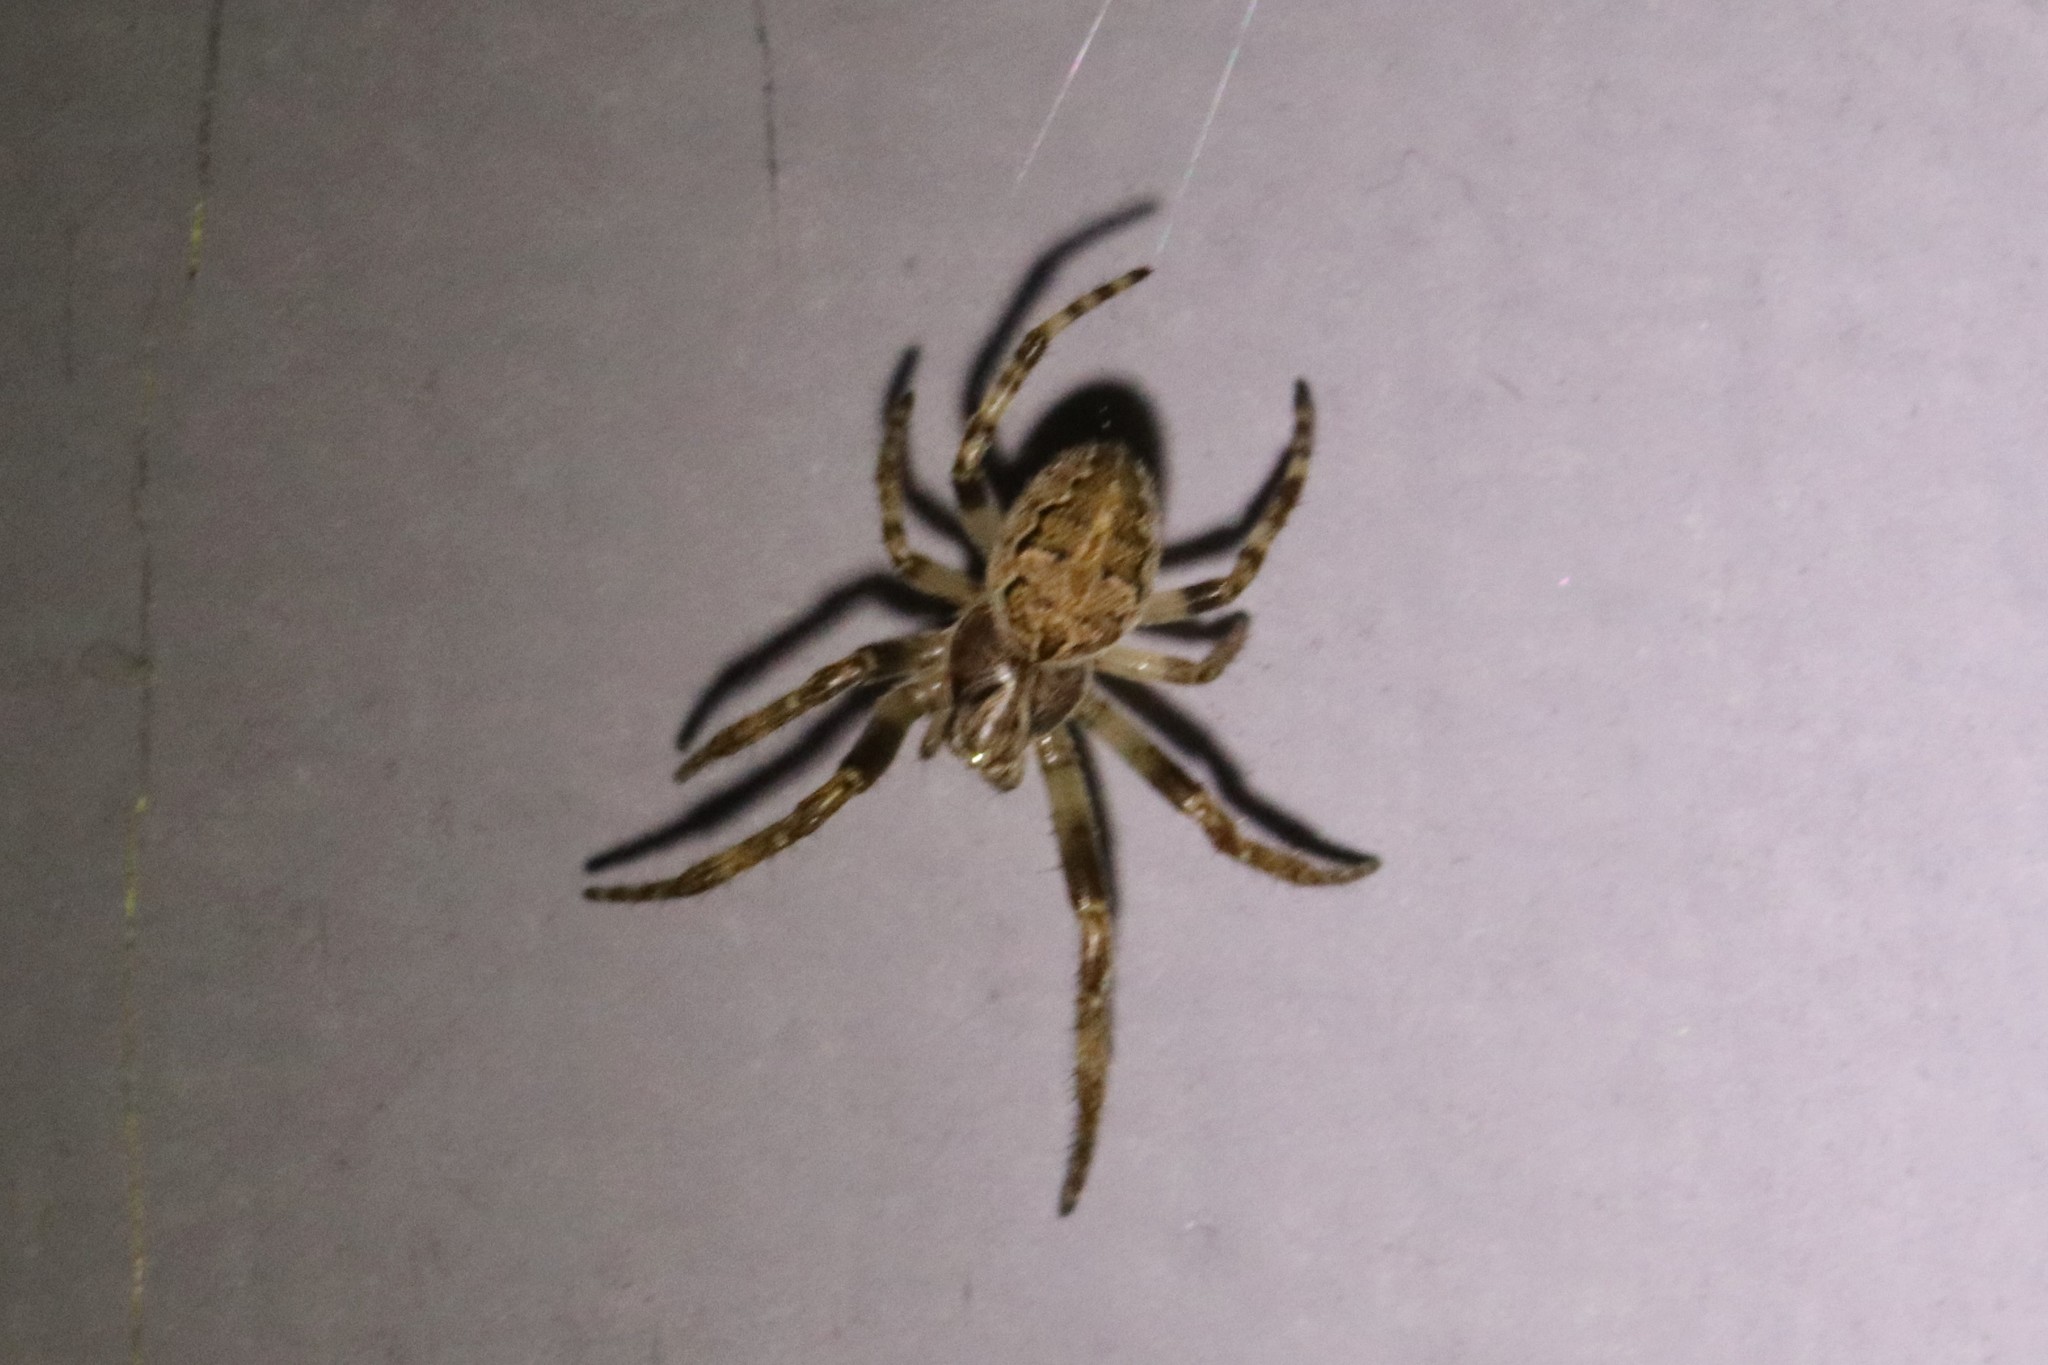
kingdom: Animalia
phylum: Arthropoda
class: Arachnida
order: Araneae
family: Araneidae
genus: Larinioides
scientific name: Larinioides sclopetarius
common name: Bridge orbweaver
